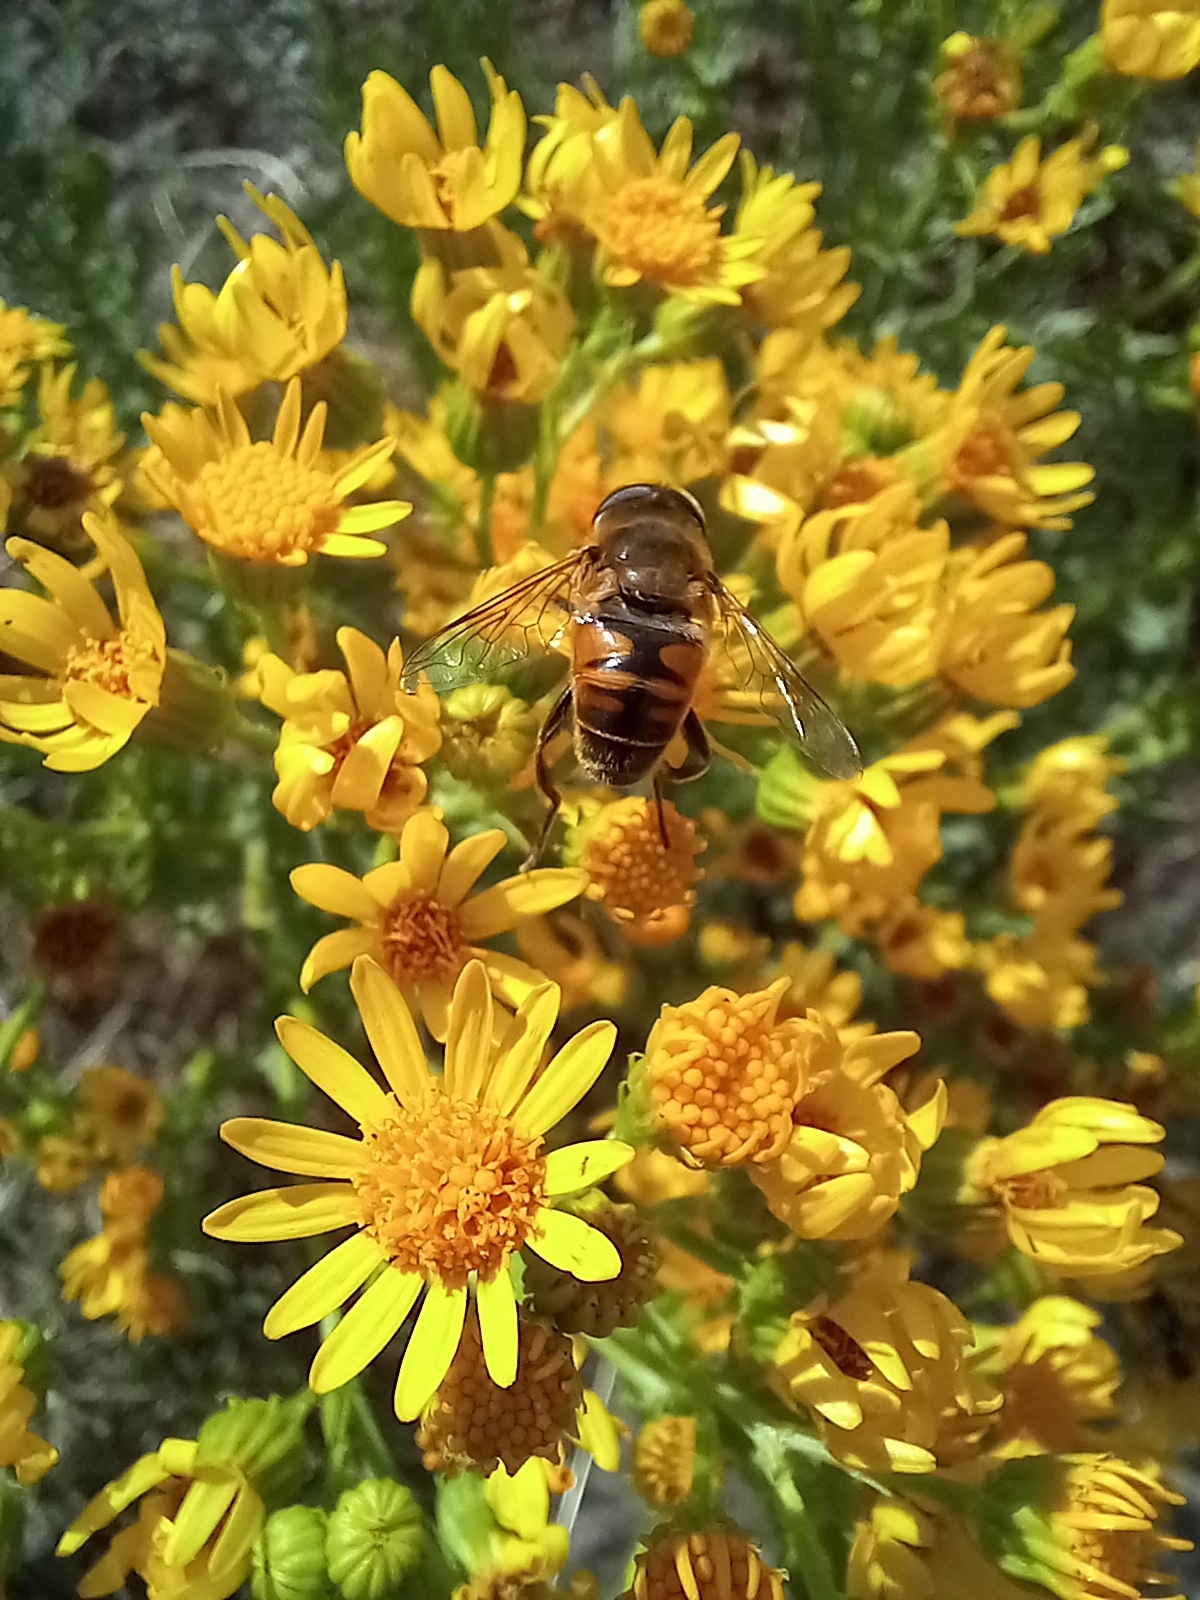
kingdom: Animalia
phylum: Arthropoda
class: Insecta
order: Diptera
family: Syrphidae
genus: Eristalis
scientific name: Eristalis tenax
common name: Drone fly
